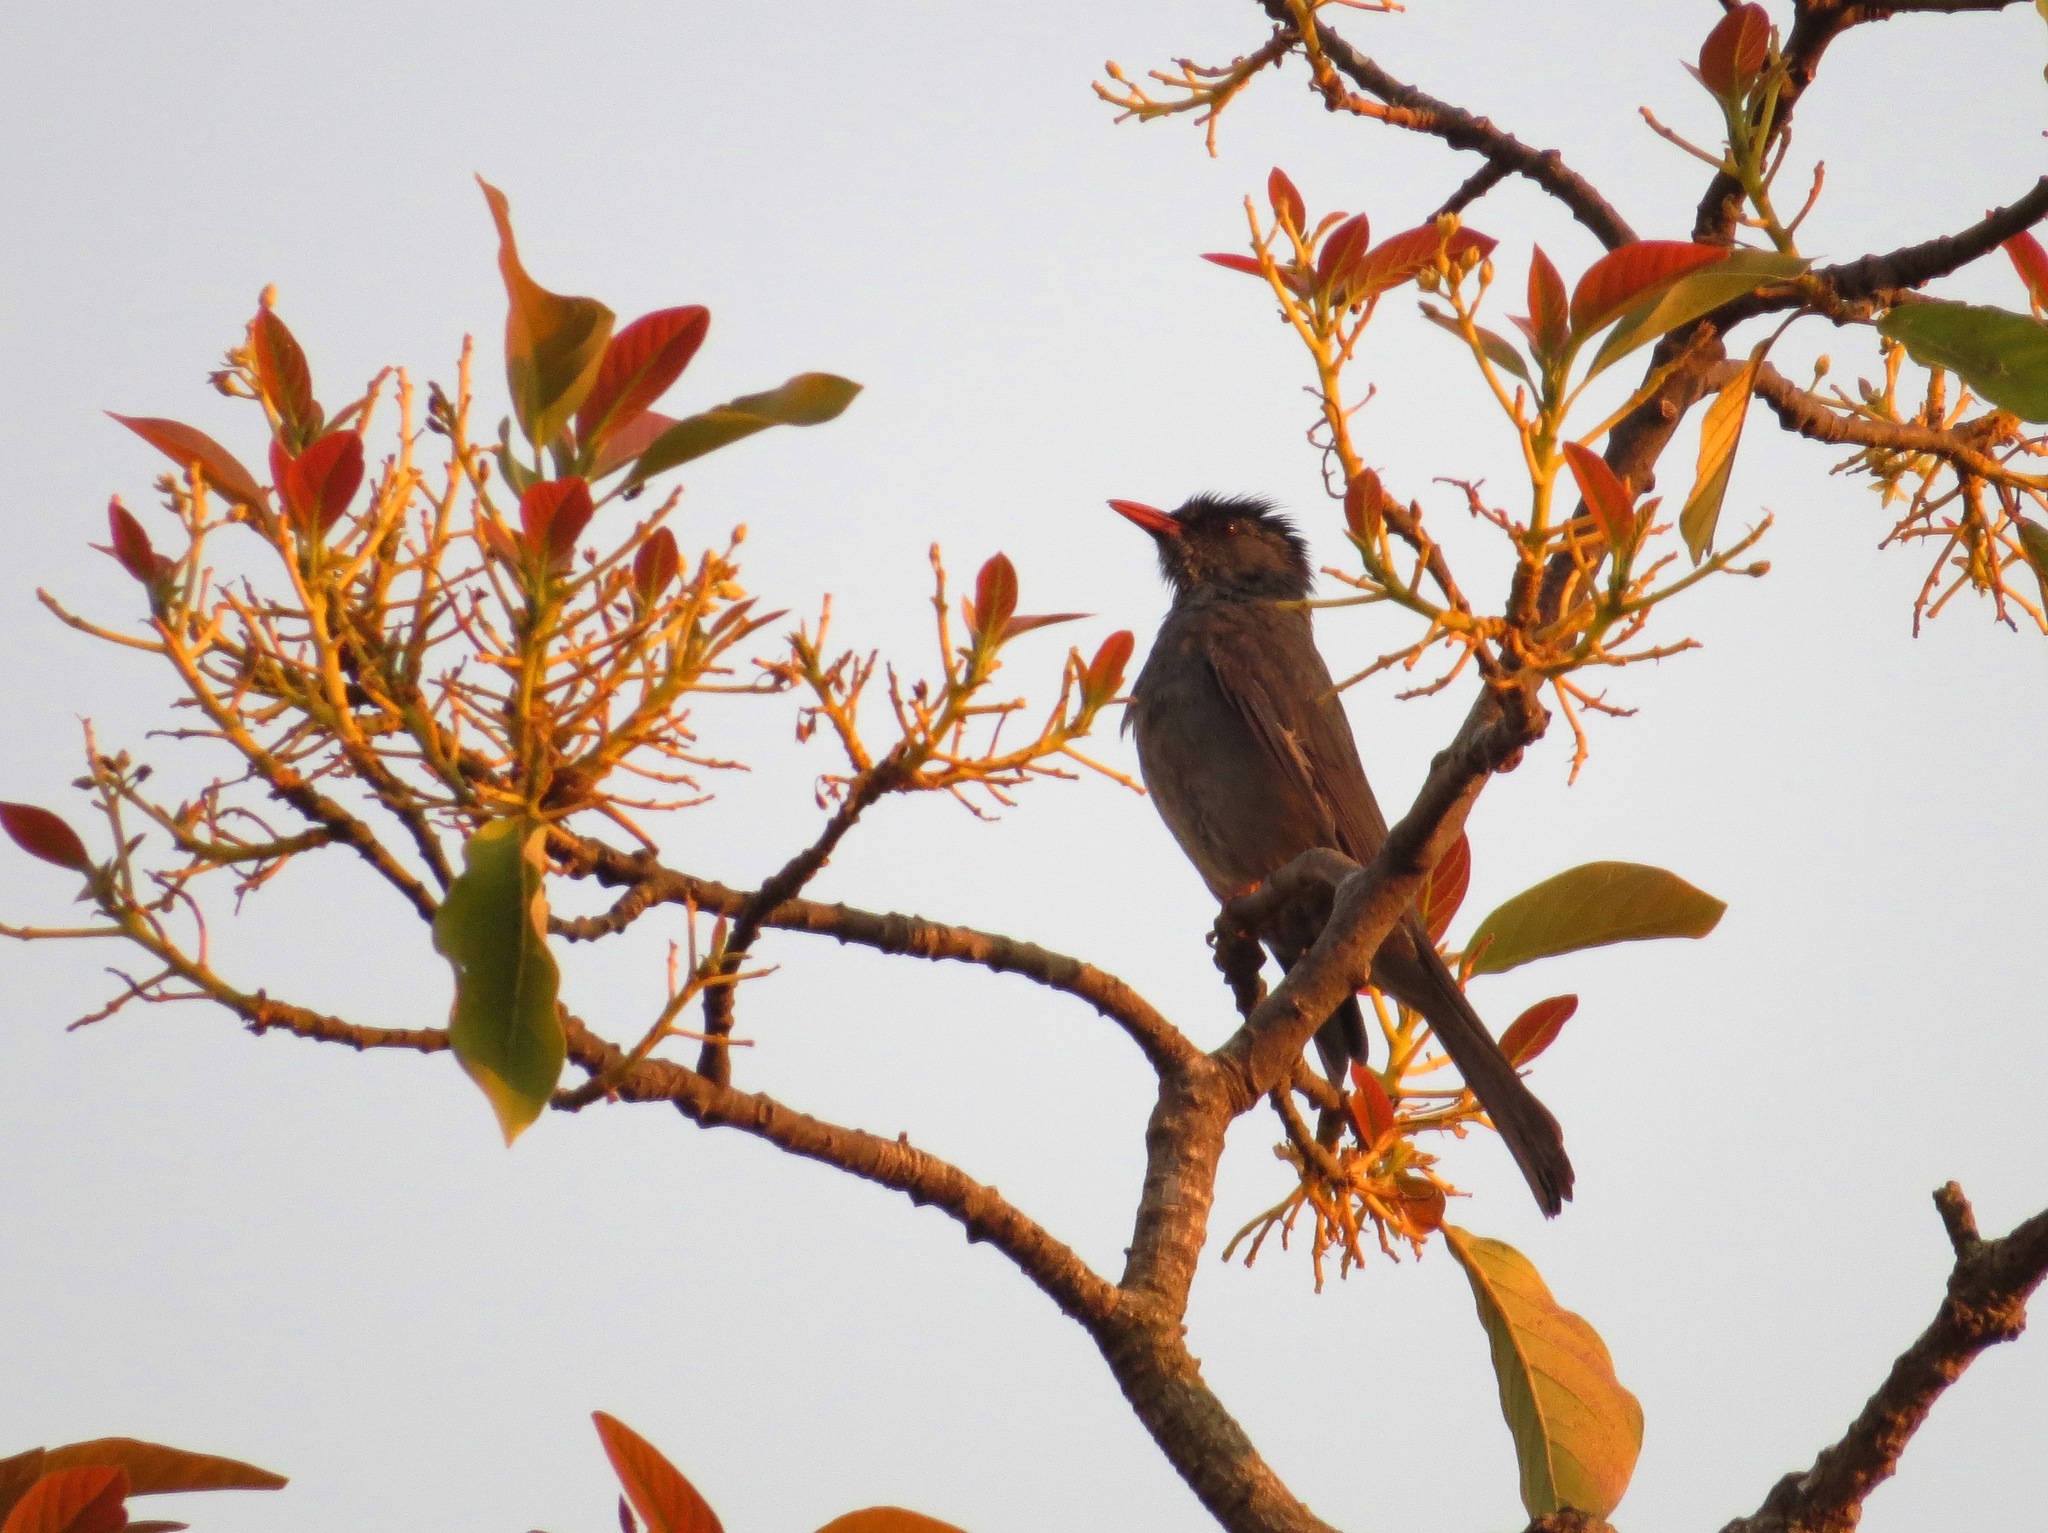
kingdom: Animalia
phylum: Chordata
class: Aves
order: Passeriformes
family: Pycnonotidae
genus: Hypsipetes
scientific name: Hypsipetes madagascariensis
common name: Malagasy bulbul
